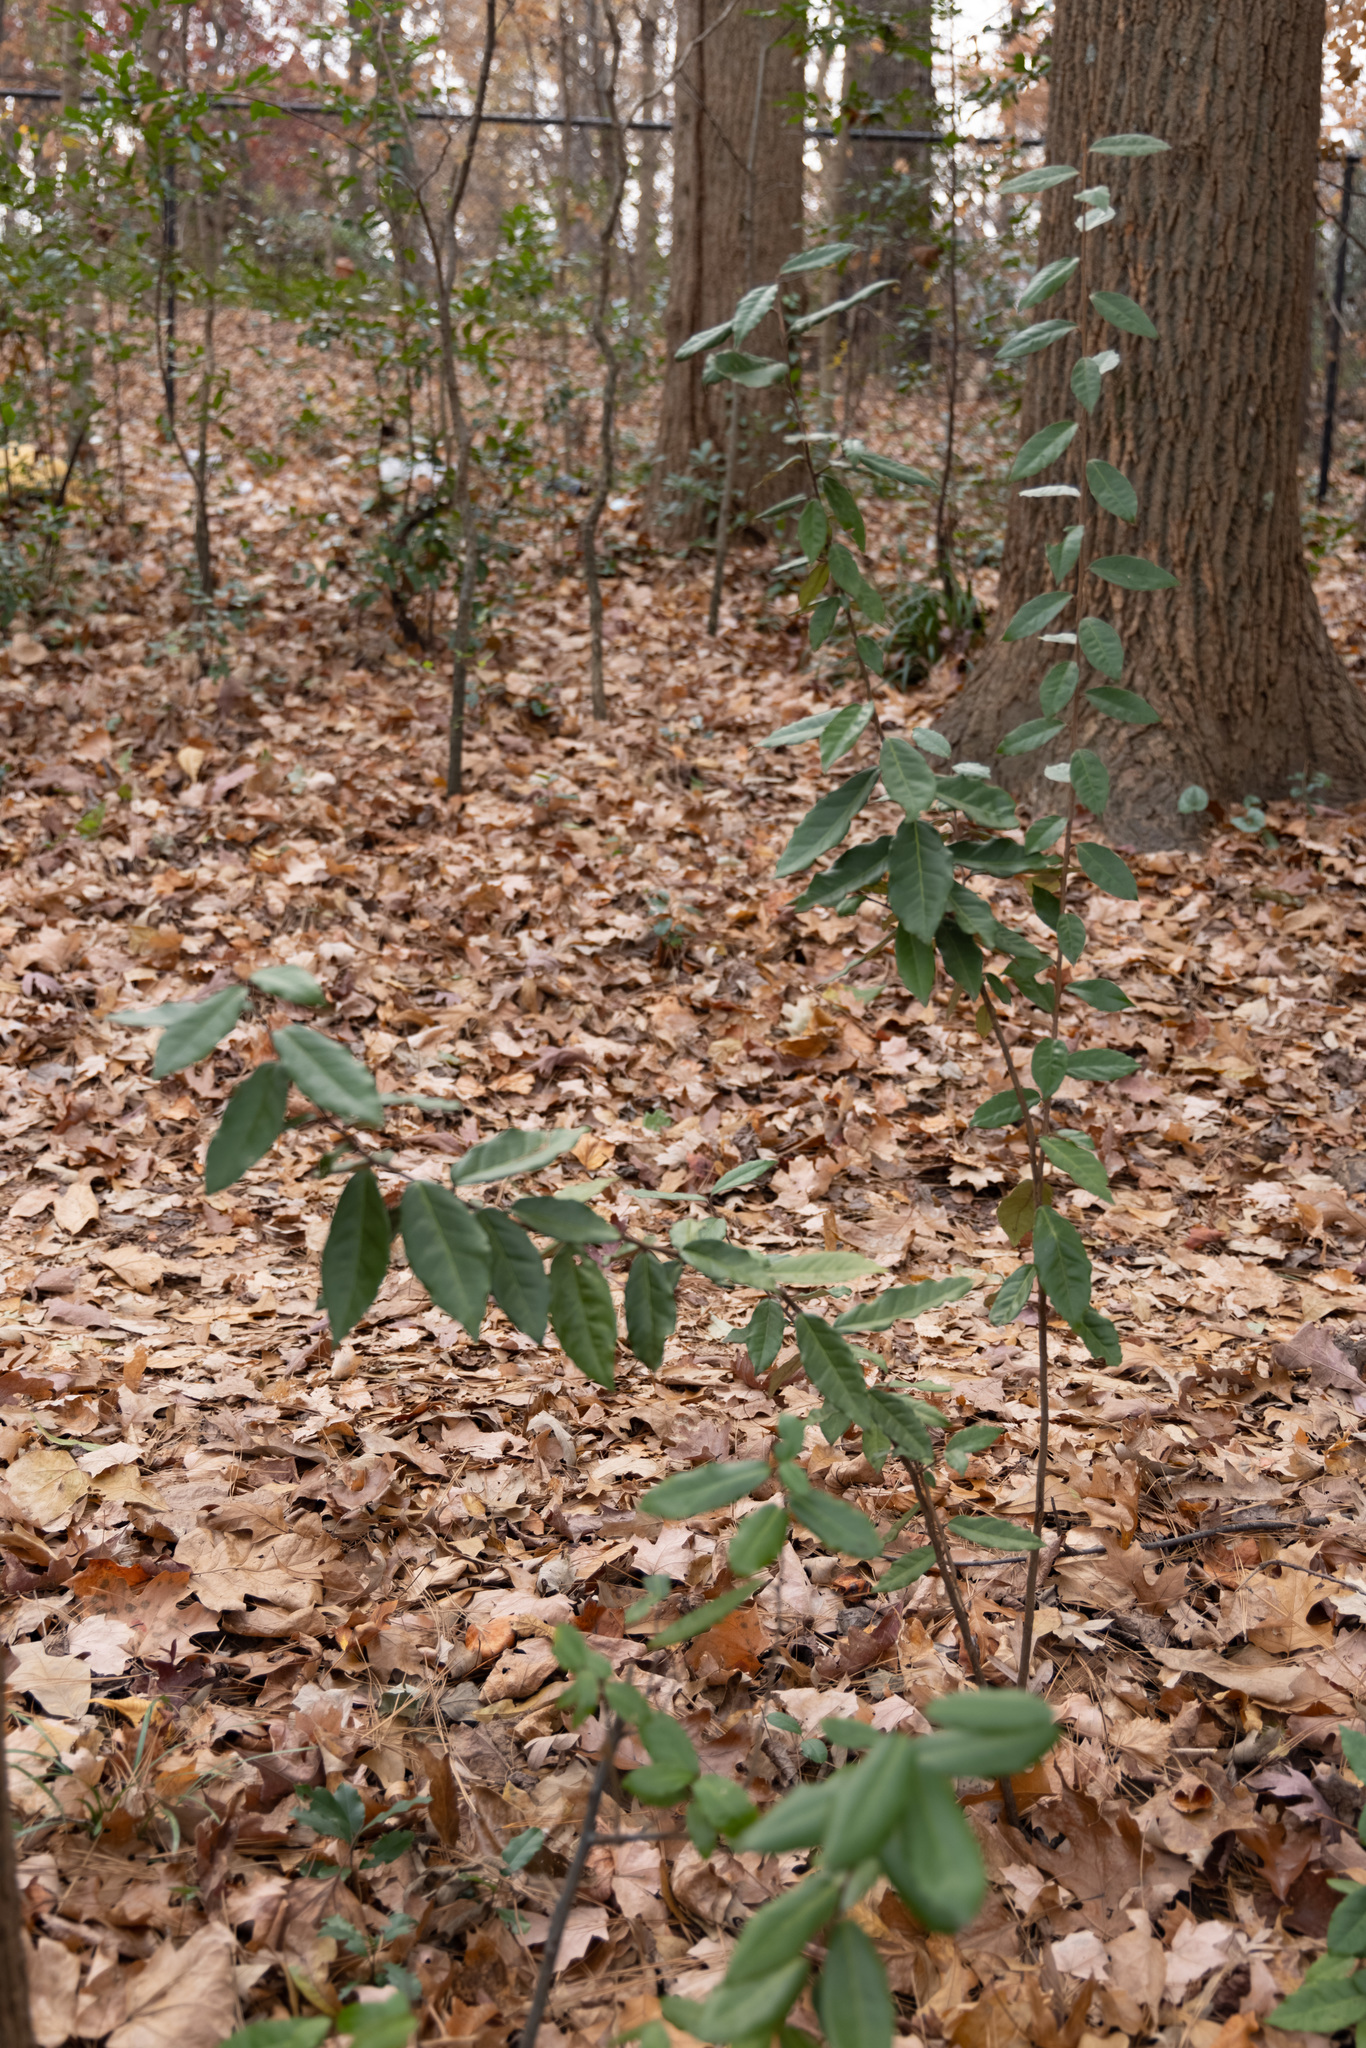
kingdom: Plantae
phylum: Tracheophyta
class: Magnoliopsida
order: Rosales
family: Elaeagnaceae
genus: Elaeagnus
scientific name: Elaeagnus pungens
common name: Spiny oleaster
